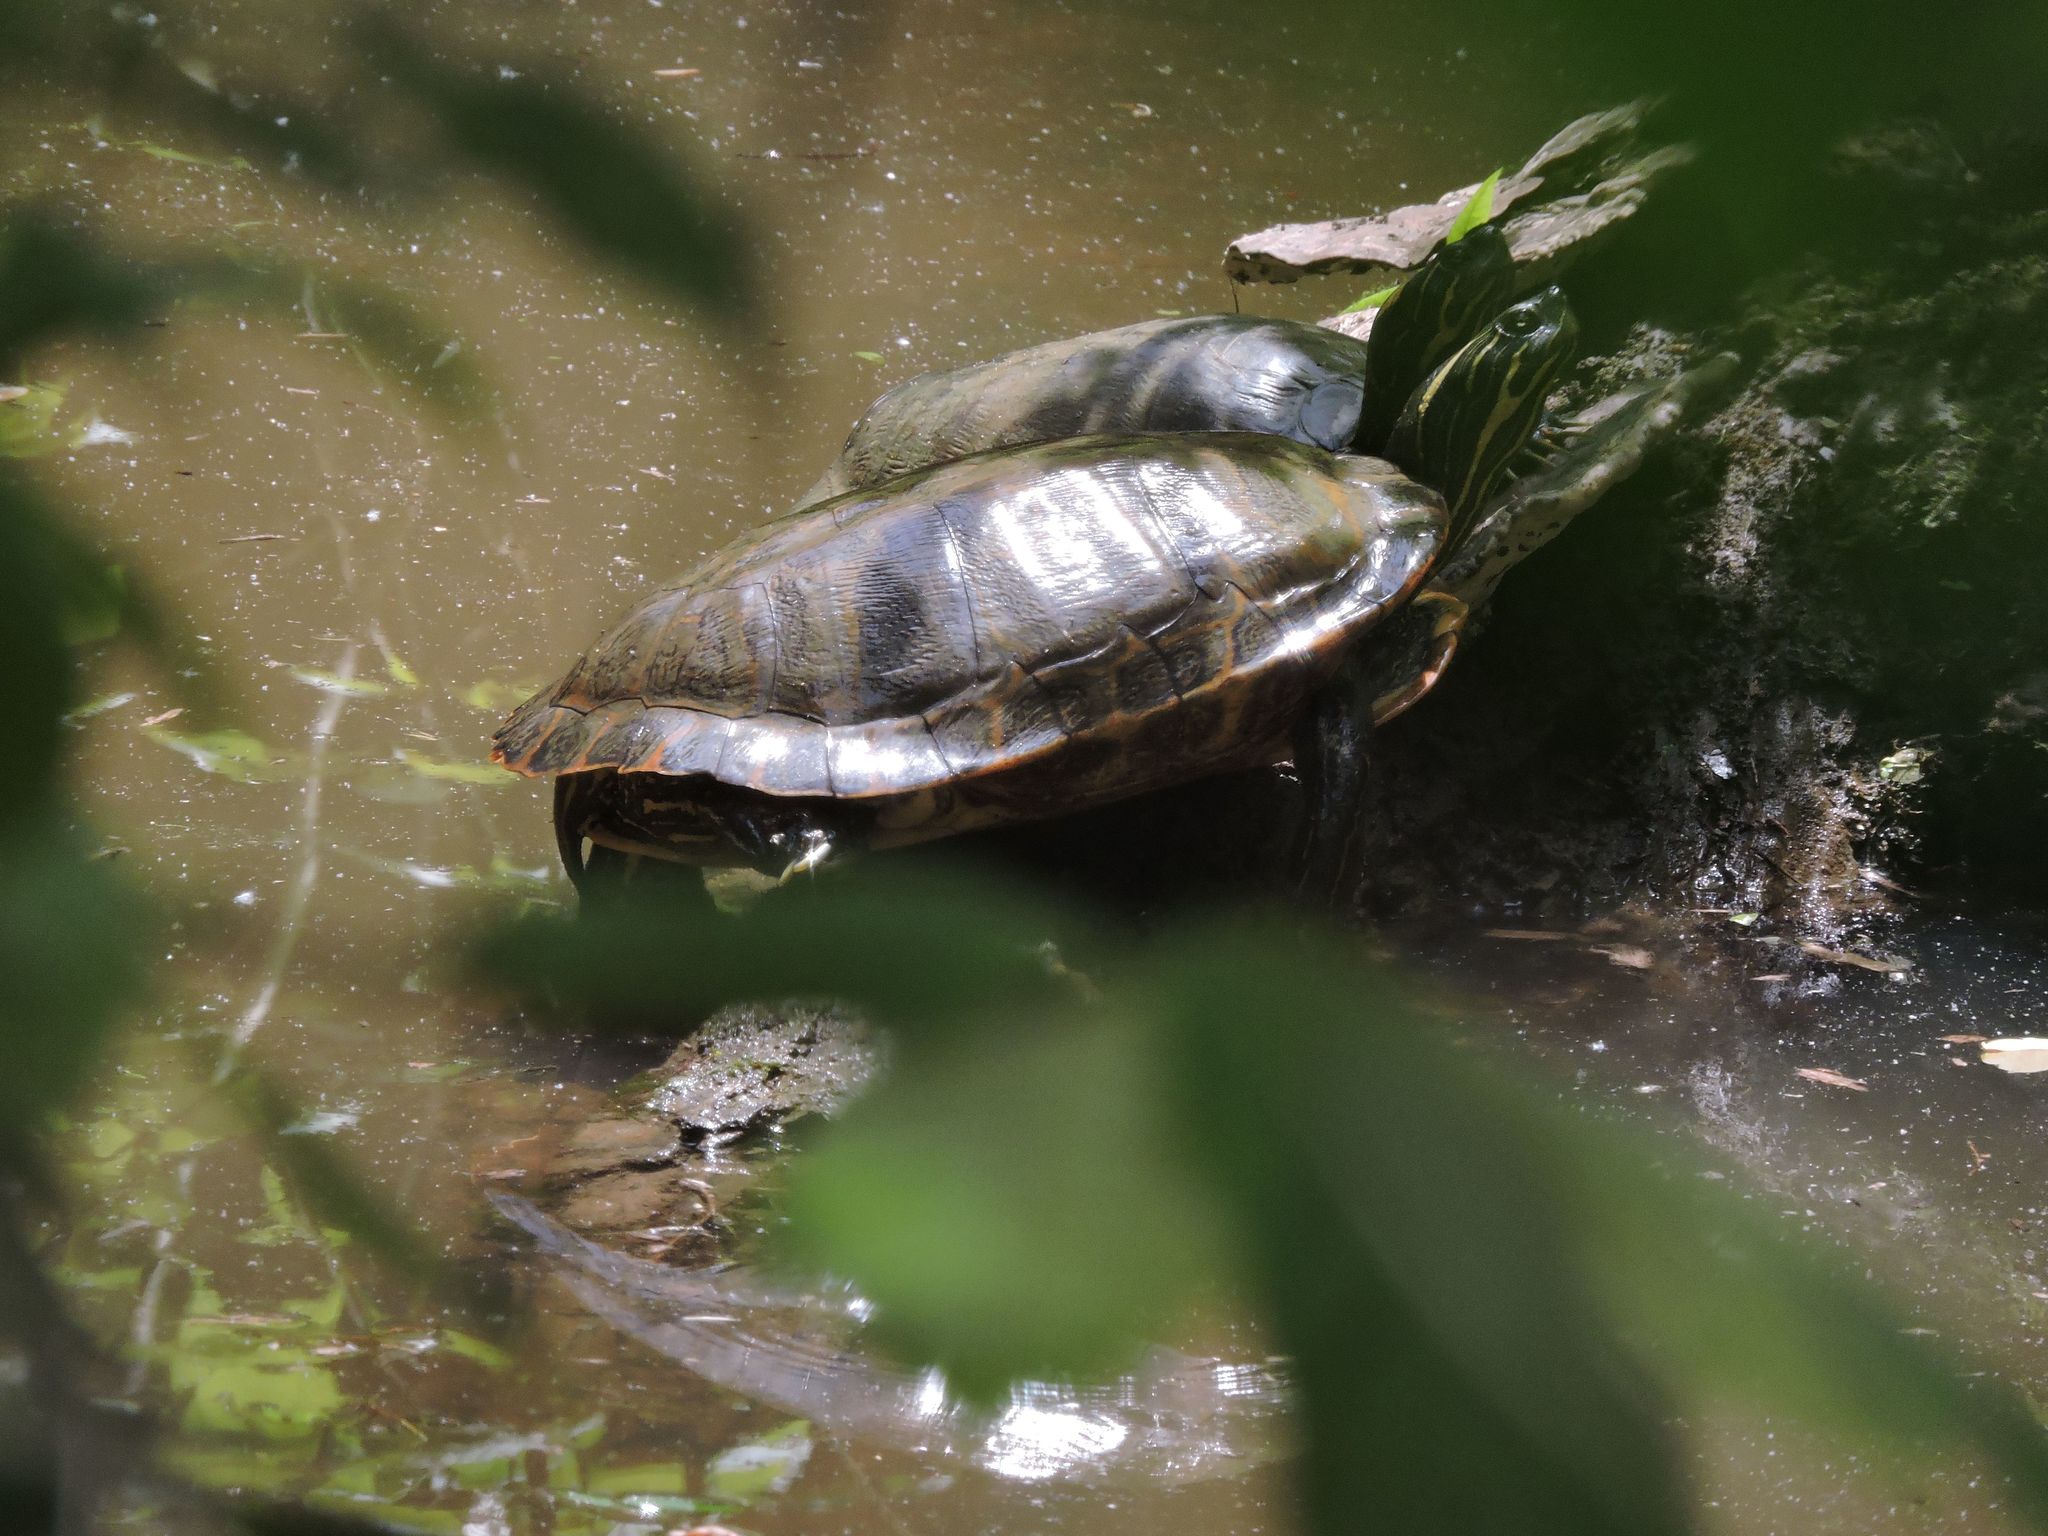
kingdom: Animalia
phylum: Chordata
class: Testudines
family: Emydidae
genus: Pseudemys
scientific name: Pseudemys concinna
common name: Eastern river cooter
